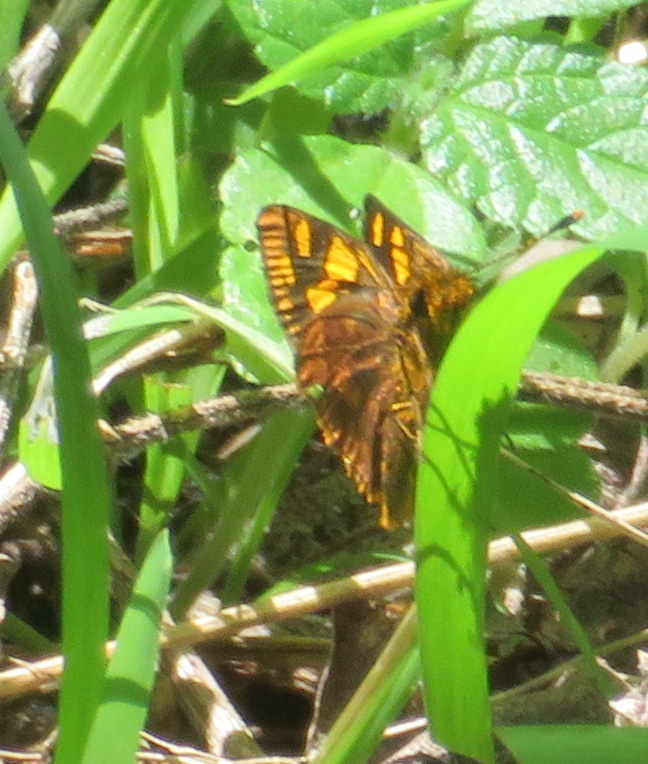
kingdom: Animalia
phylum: Arthropoda
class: Insecta
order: Lepidoptera
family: Hesperiidae
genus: Metisella
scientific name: Metisella metis
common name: Western gold-spotted sylph
